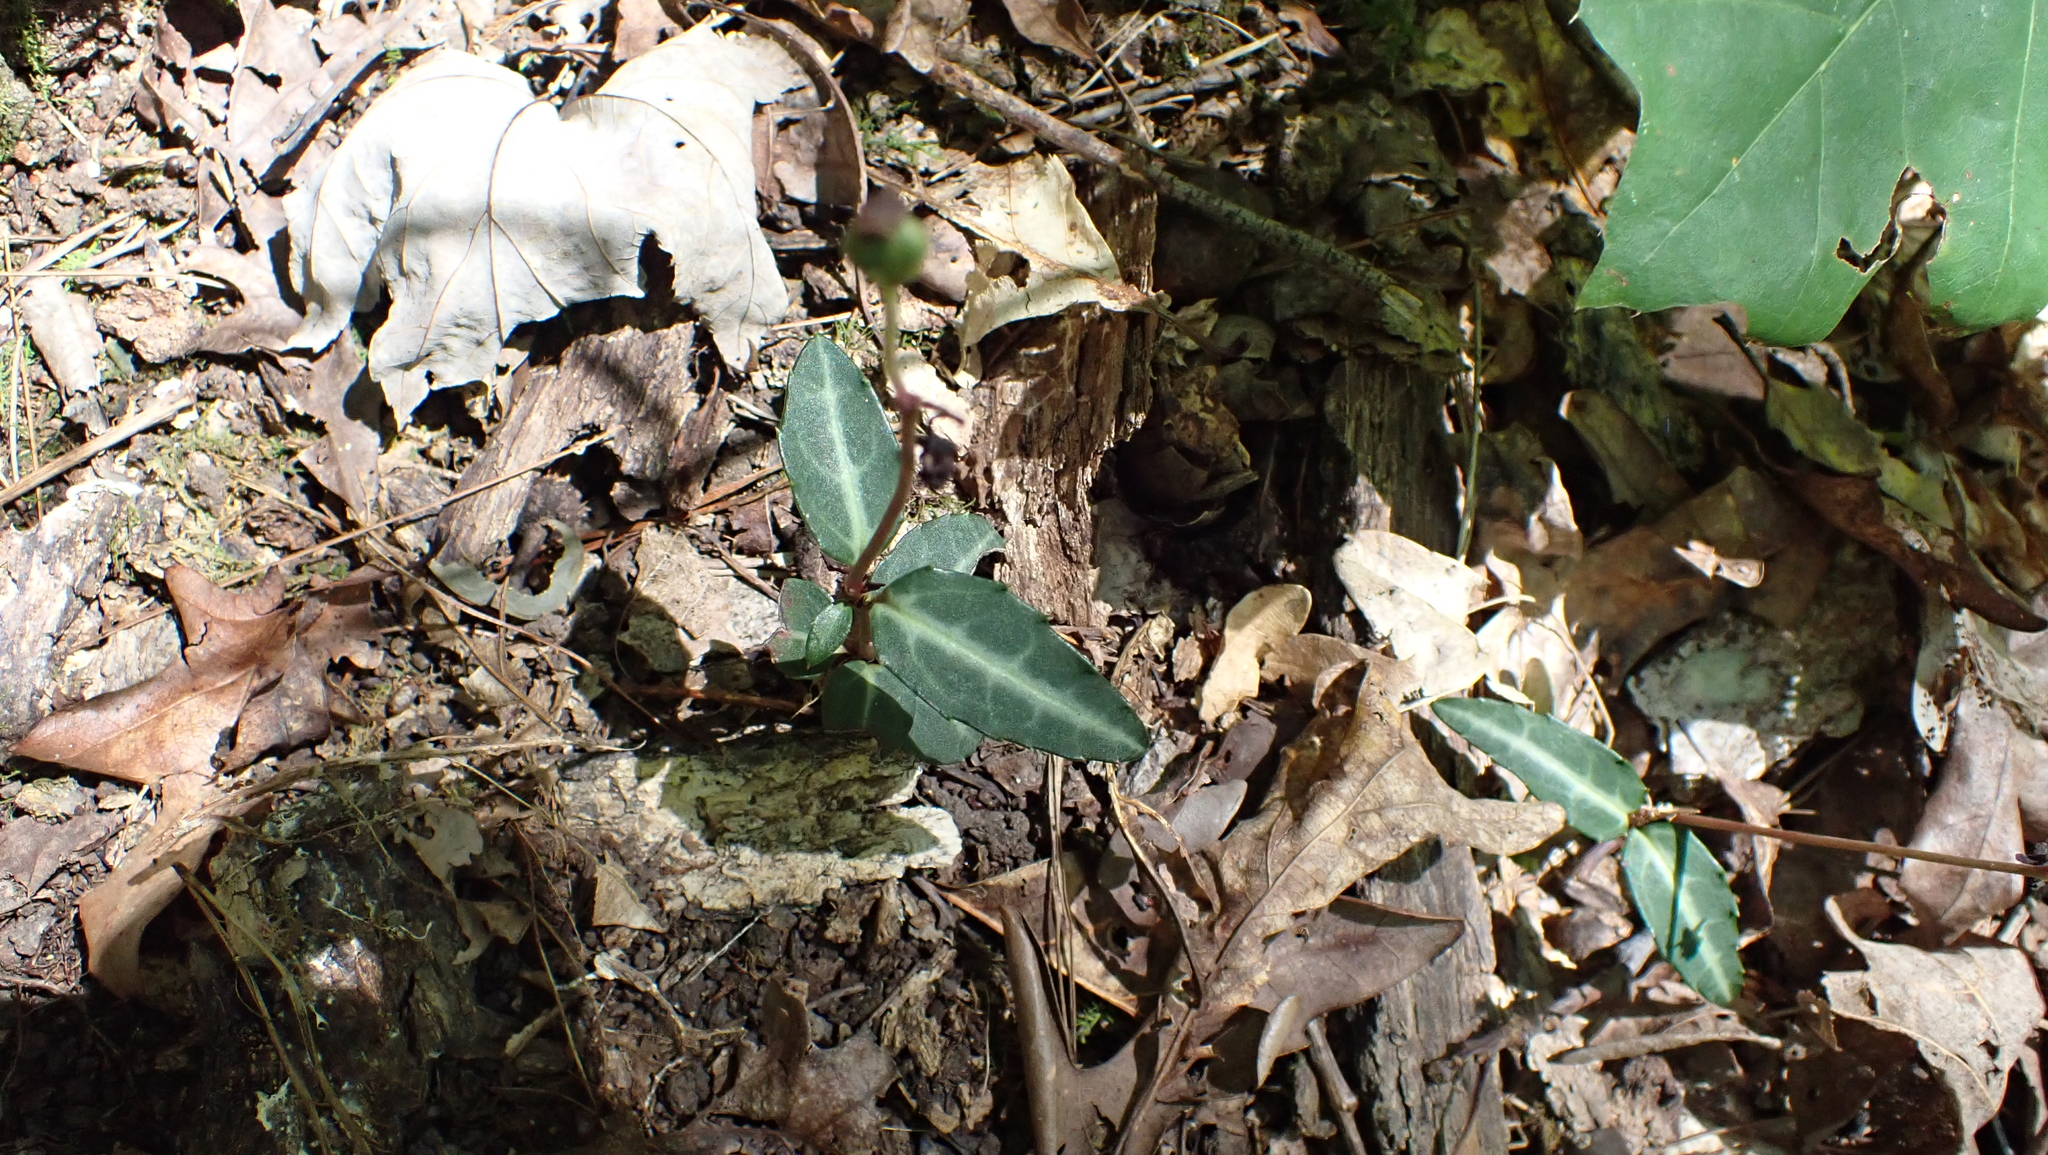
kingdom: Plantae
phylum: Tracheophyta
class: Magnoliopsida
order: Ericales
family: Ericaceae
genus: Chimaphila
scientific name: Chimaphila maculata
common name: Spotted pipsissewa
